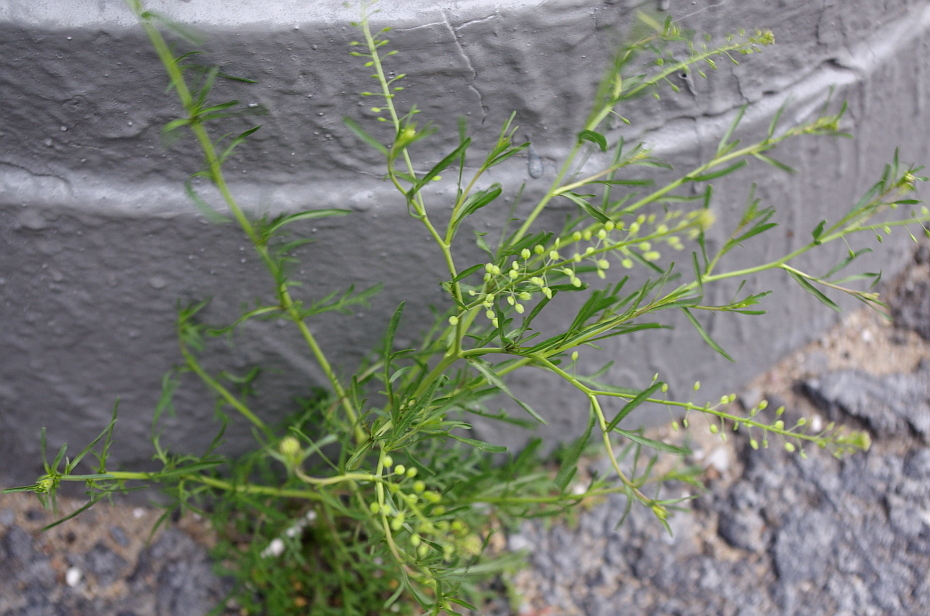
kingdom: Plantae
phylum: Tracheophyta
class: Magnoliopsida
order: Brassicales
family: Brassicaceae
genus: Lepidium
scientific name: Lepidium ruderale
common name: Narrow-leaved pepperwort
